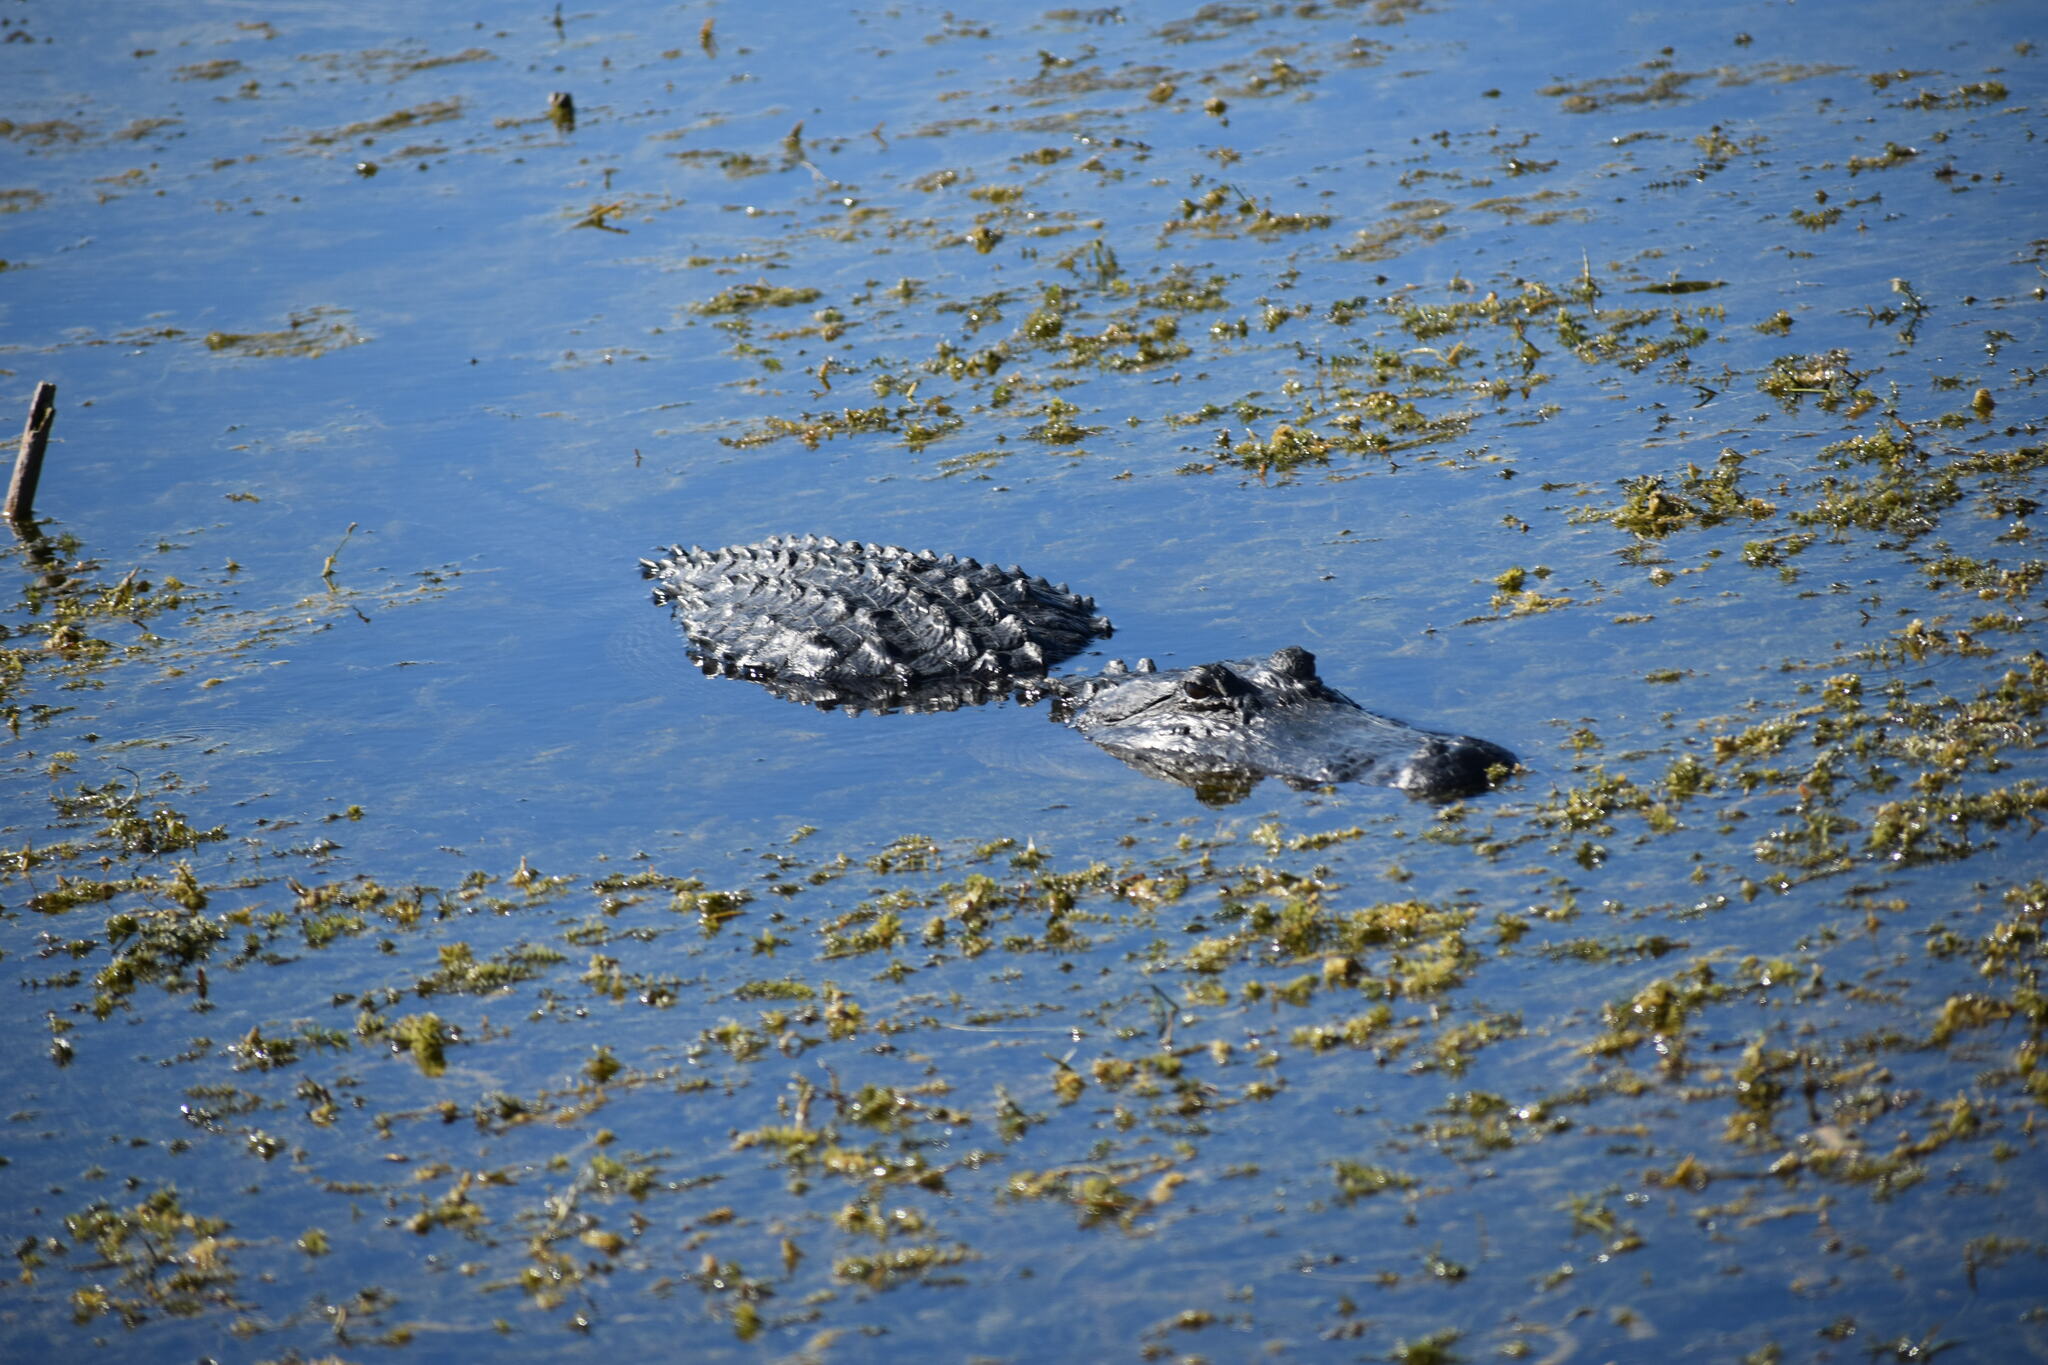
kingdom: Animalia
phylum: Chordata
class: Crocodylia
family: Alligatoridae
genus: Alligator
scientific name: Alligator mississippiensis
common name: American alligator
